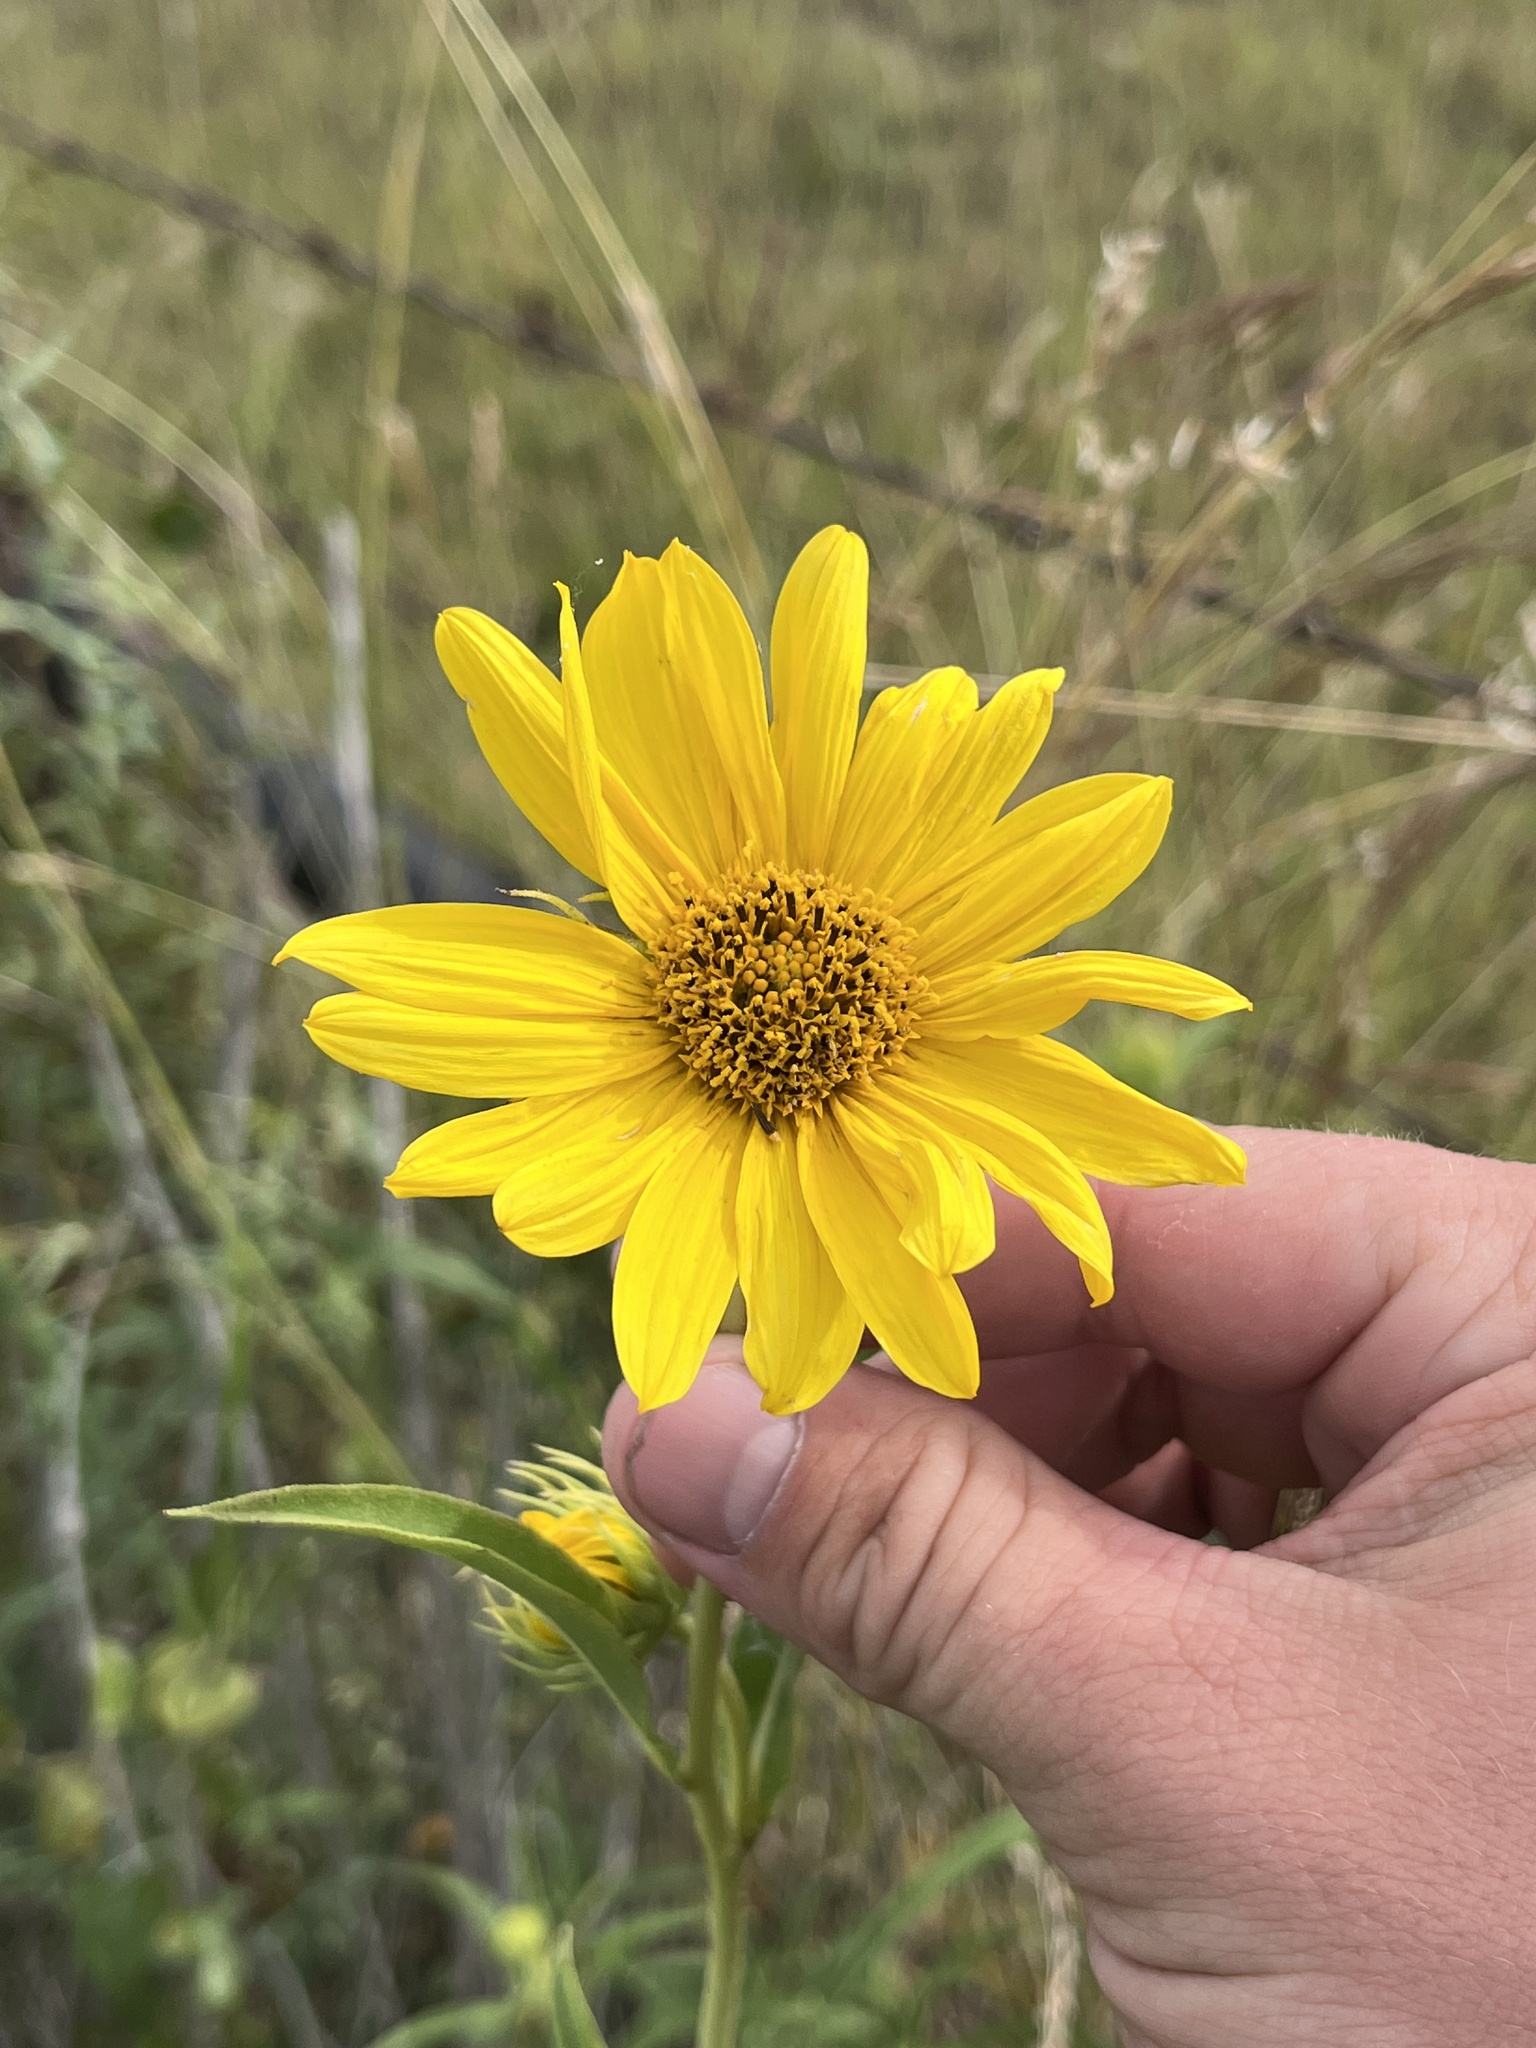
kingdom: Plantae
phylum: Tracheophyta
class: Magnoliopsida
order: Asterales
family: Asteraceae
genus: Helianthus
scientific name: Helianthus maximiliani
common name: Maximilian's sunflower
